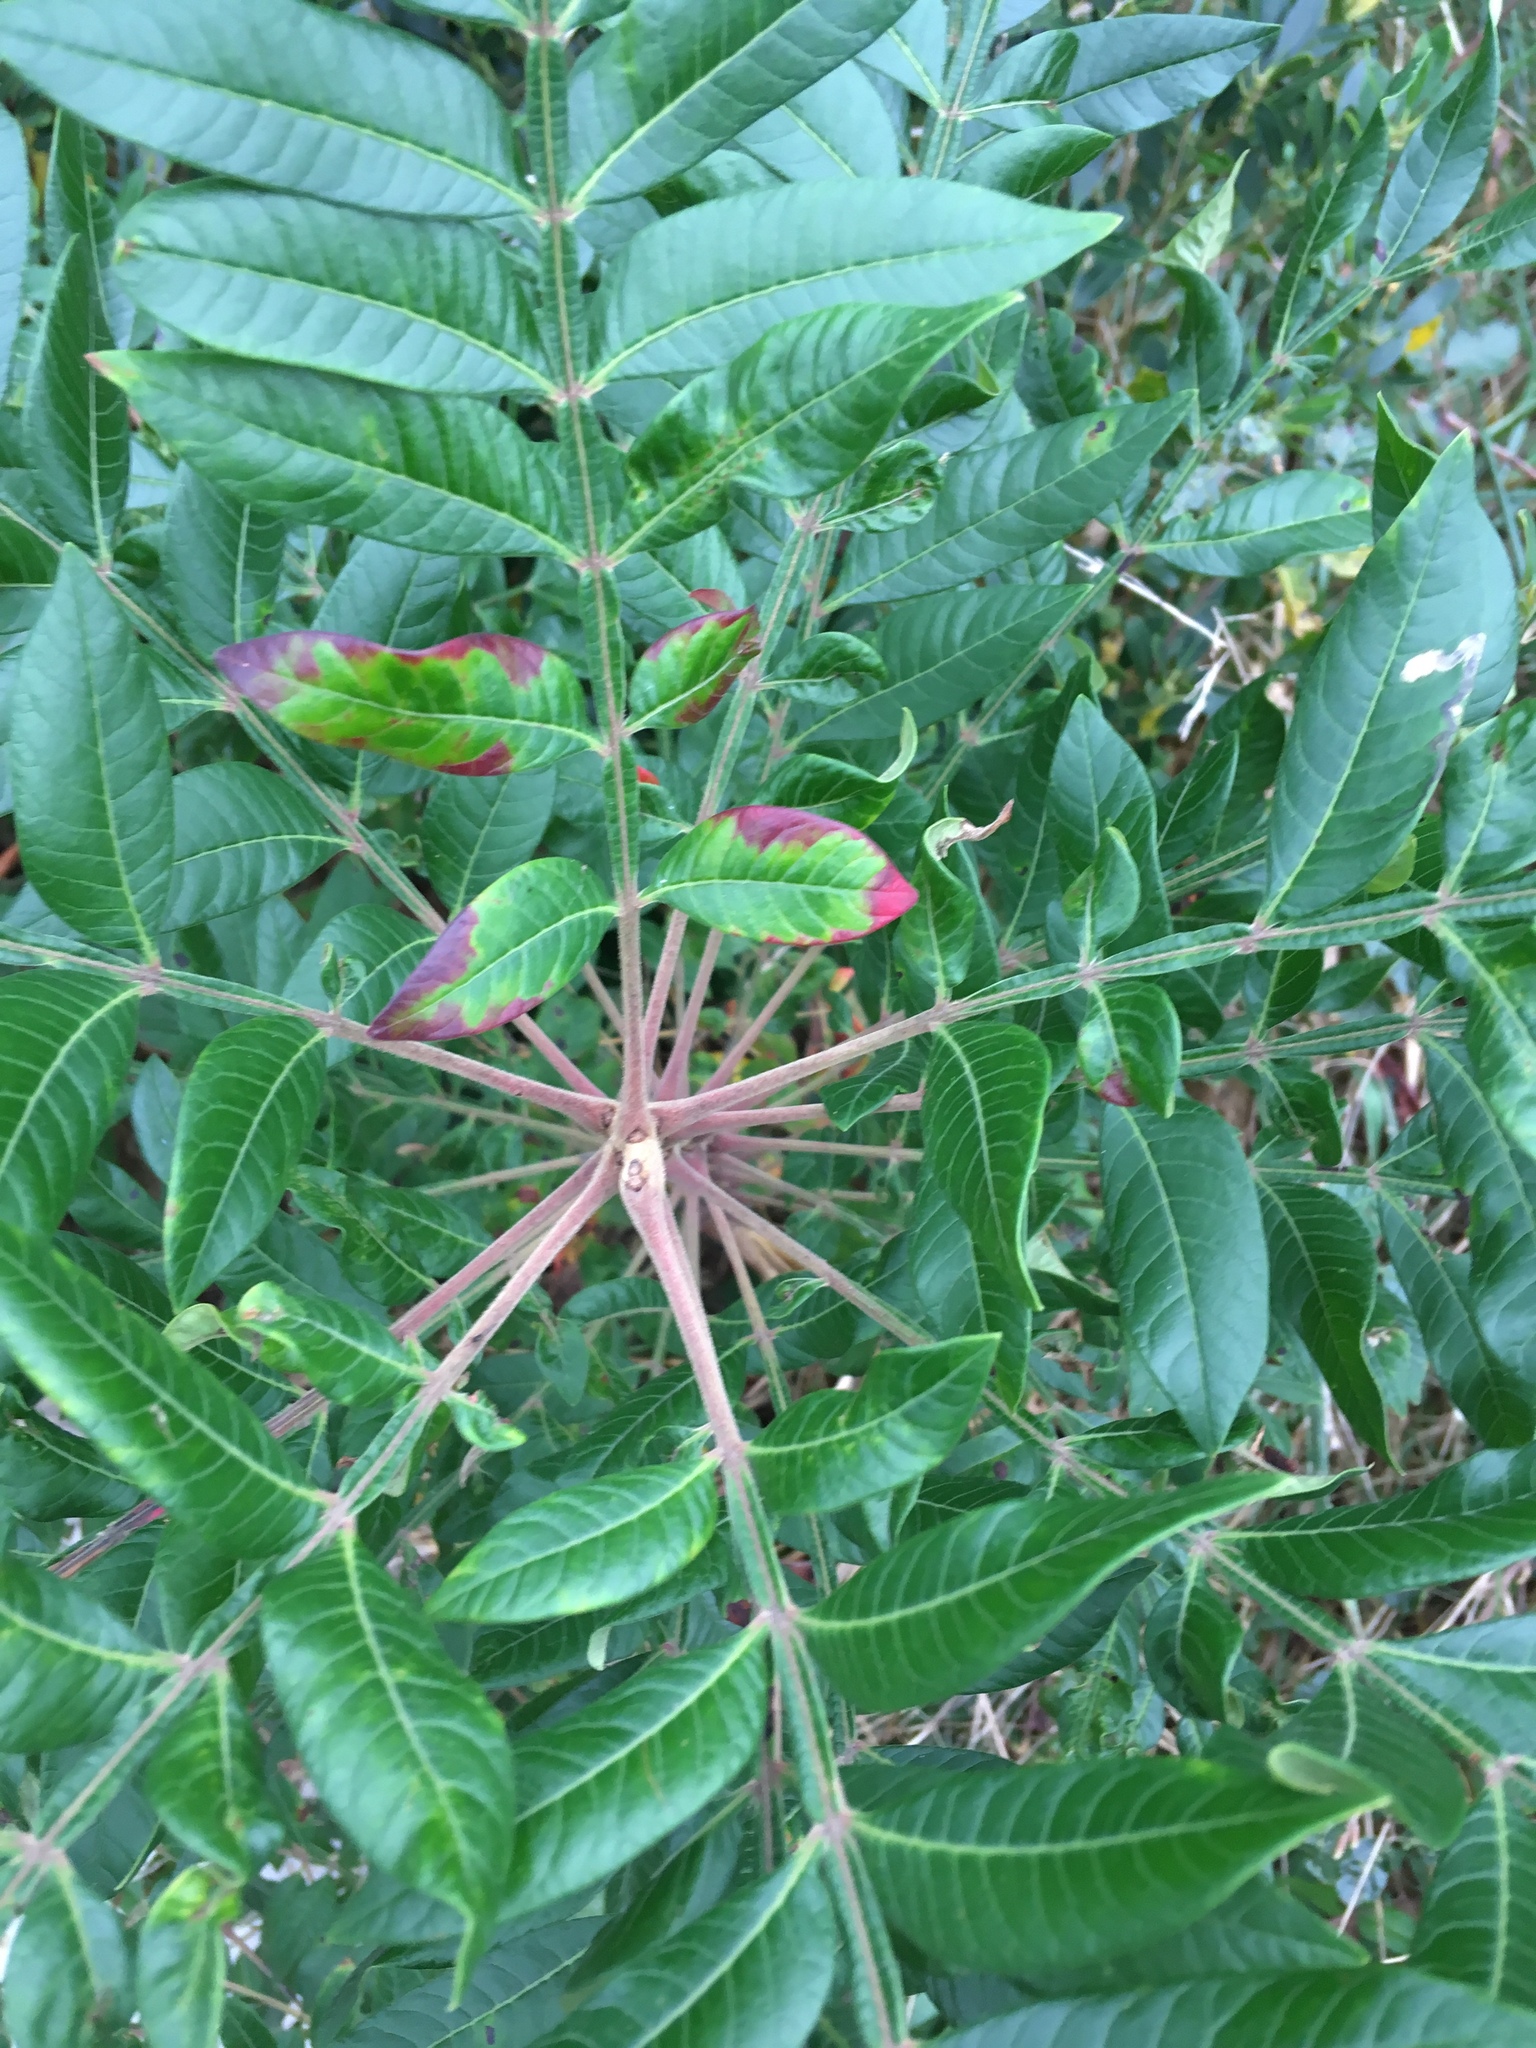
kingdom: Plantae
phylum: Tracheophyta
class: Magnoliopsida
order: Sapindales
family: Anacardiaceae
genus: Rhus
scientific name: Rhus copallina
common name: Shining sumac
